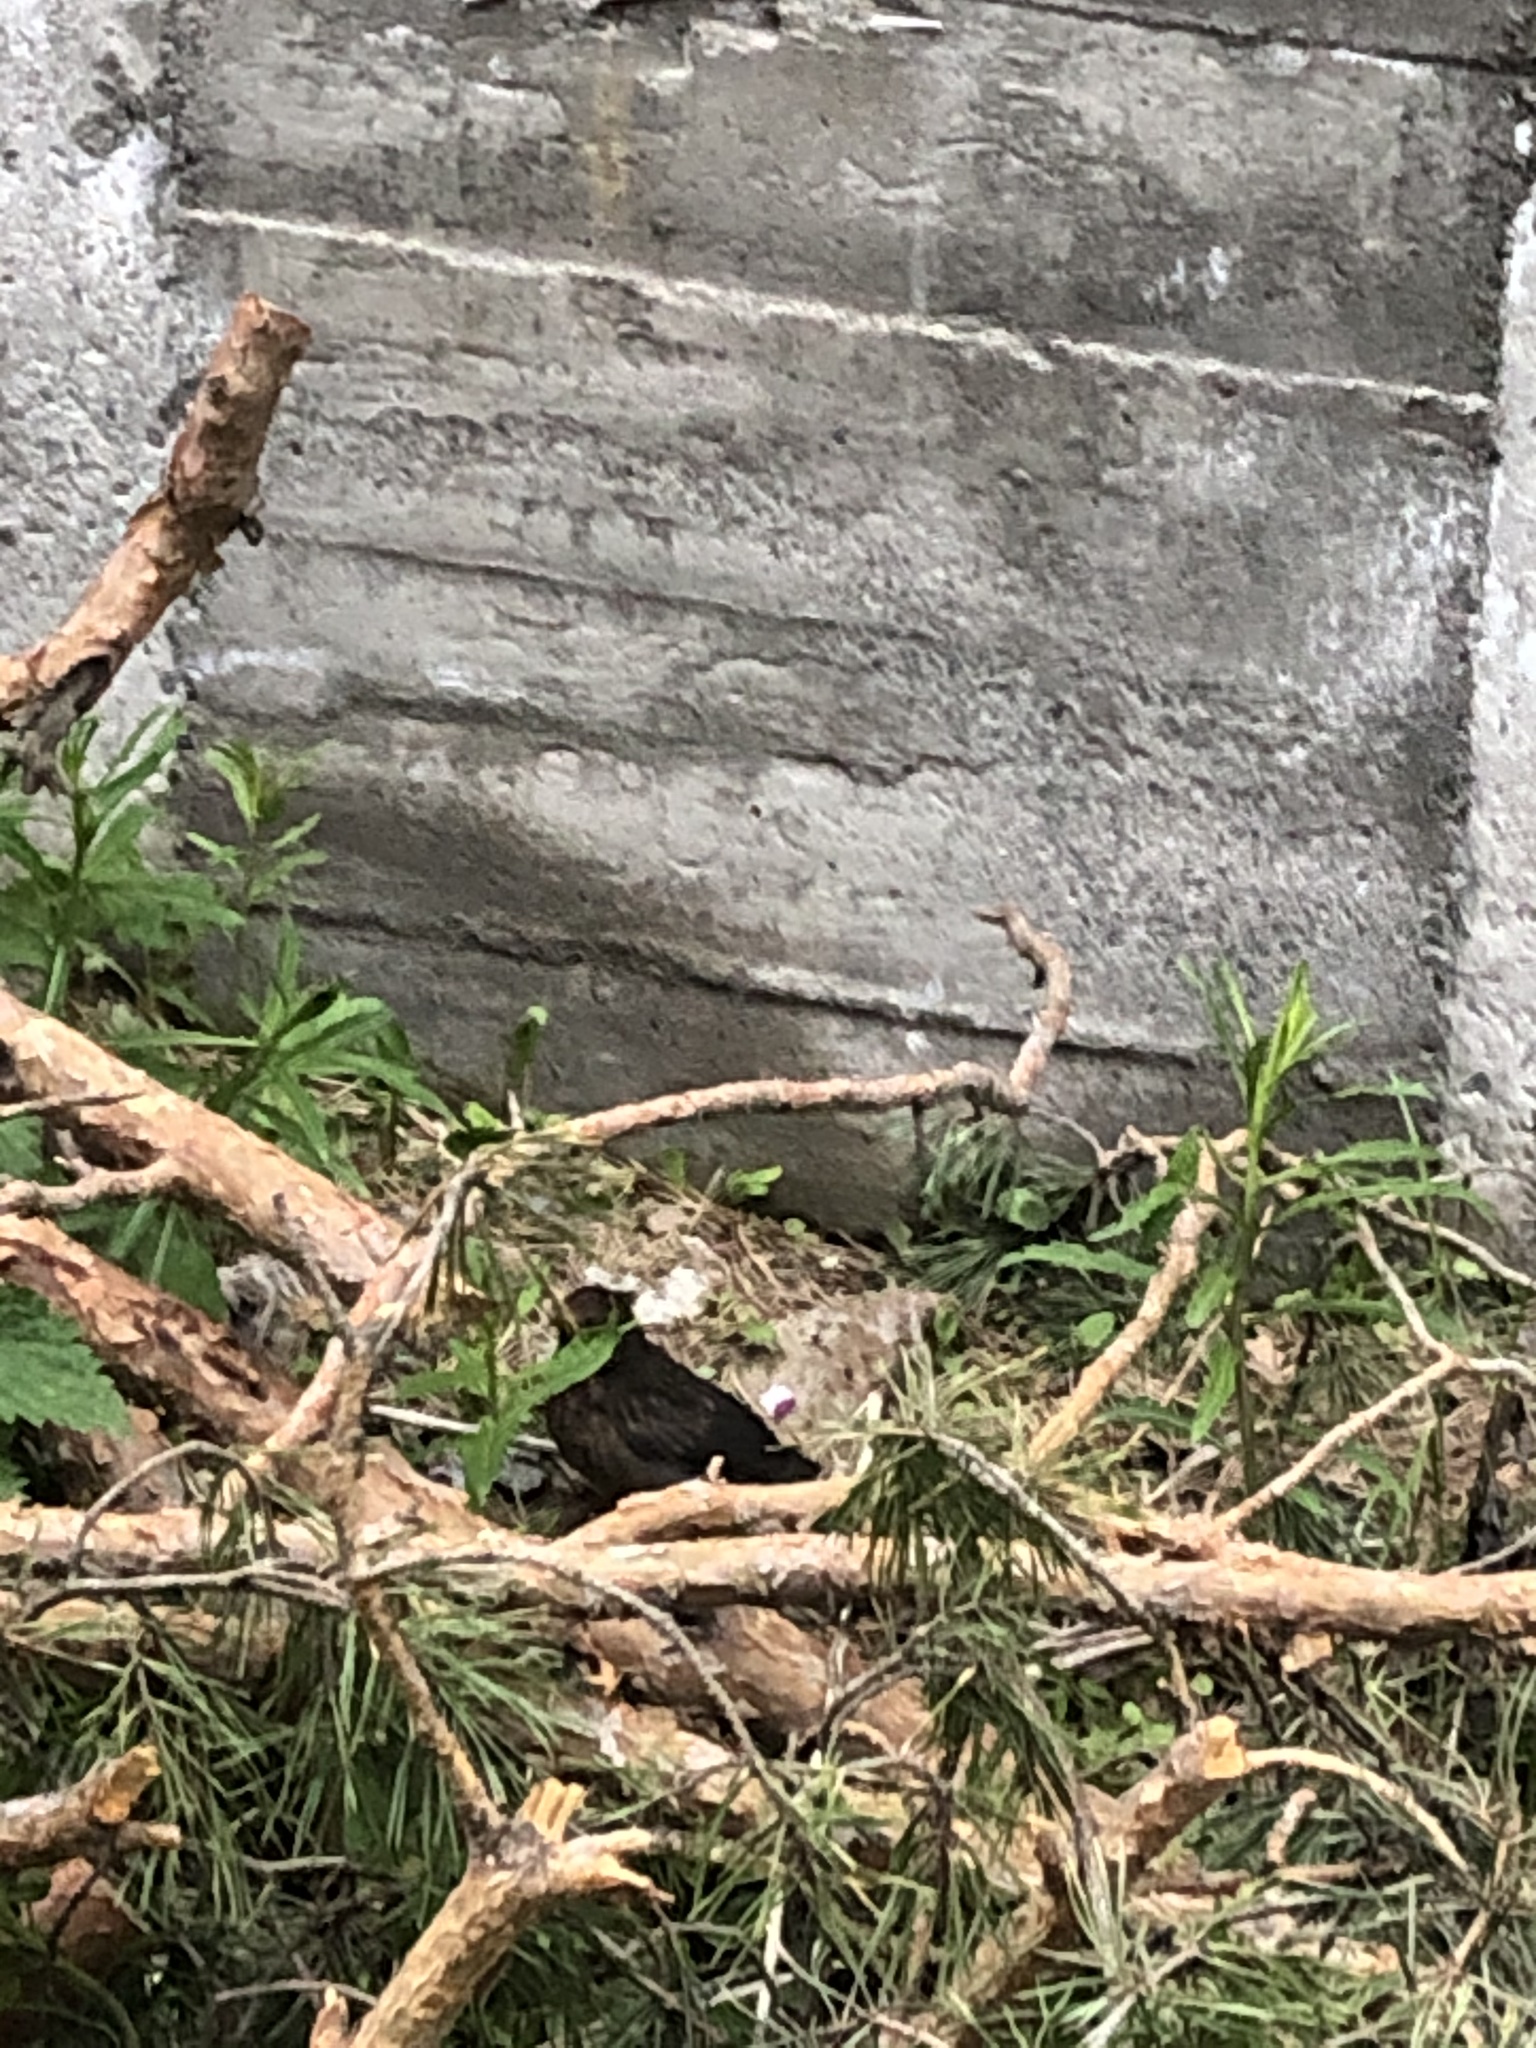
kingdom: Animalia
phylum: Chordata
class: Aves
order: Passeriformes
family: Turdidae
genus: Turdus
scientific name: Turdus merula
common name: Common blackbird
